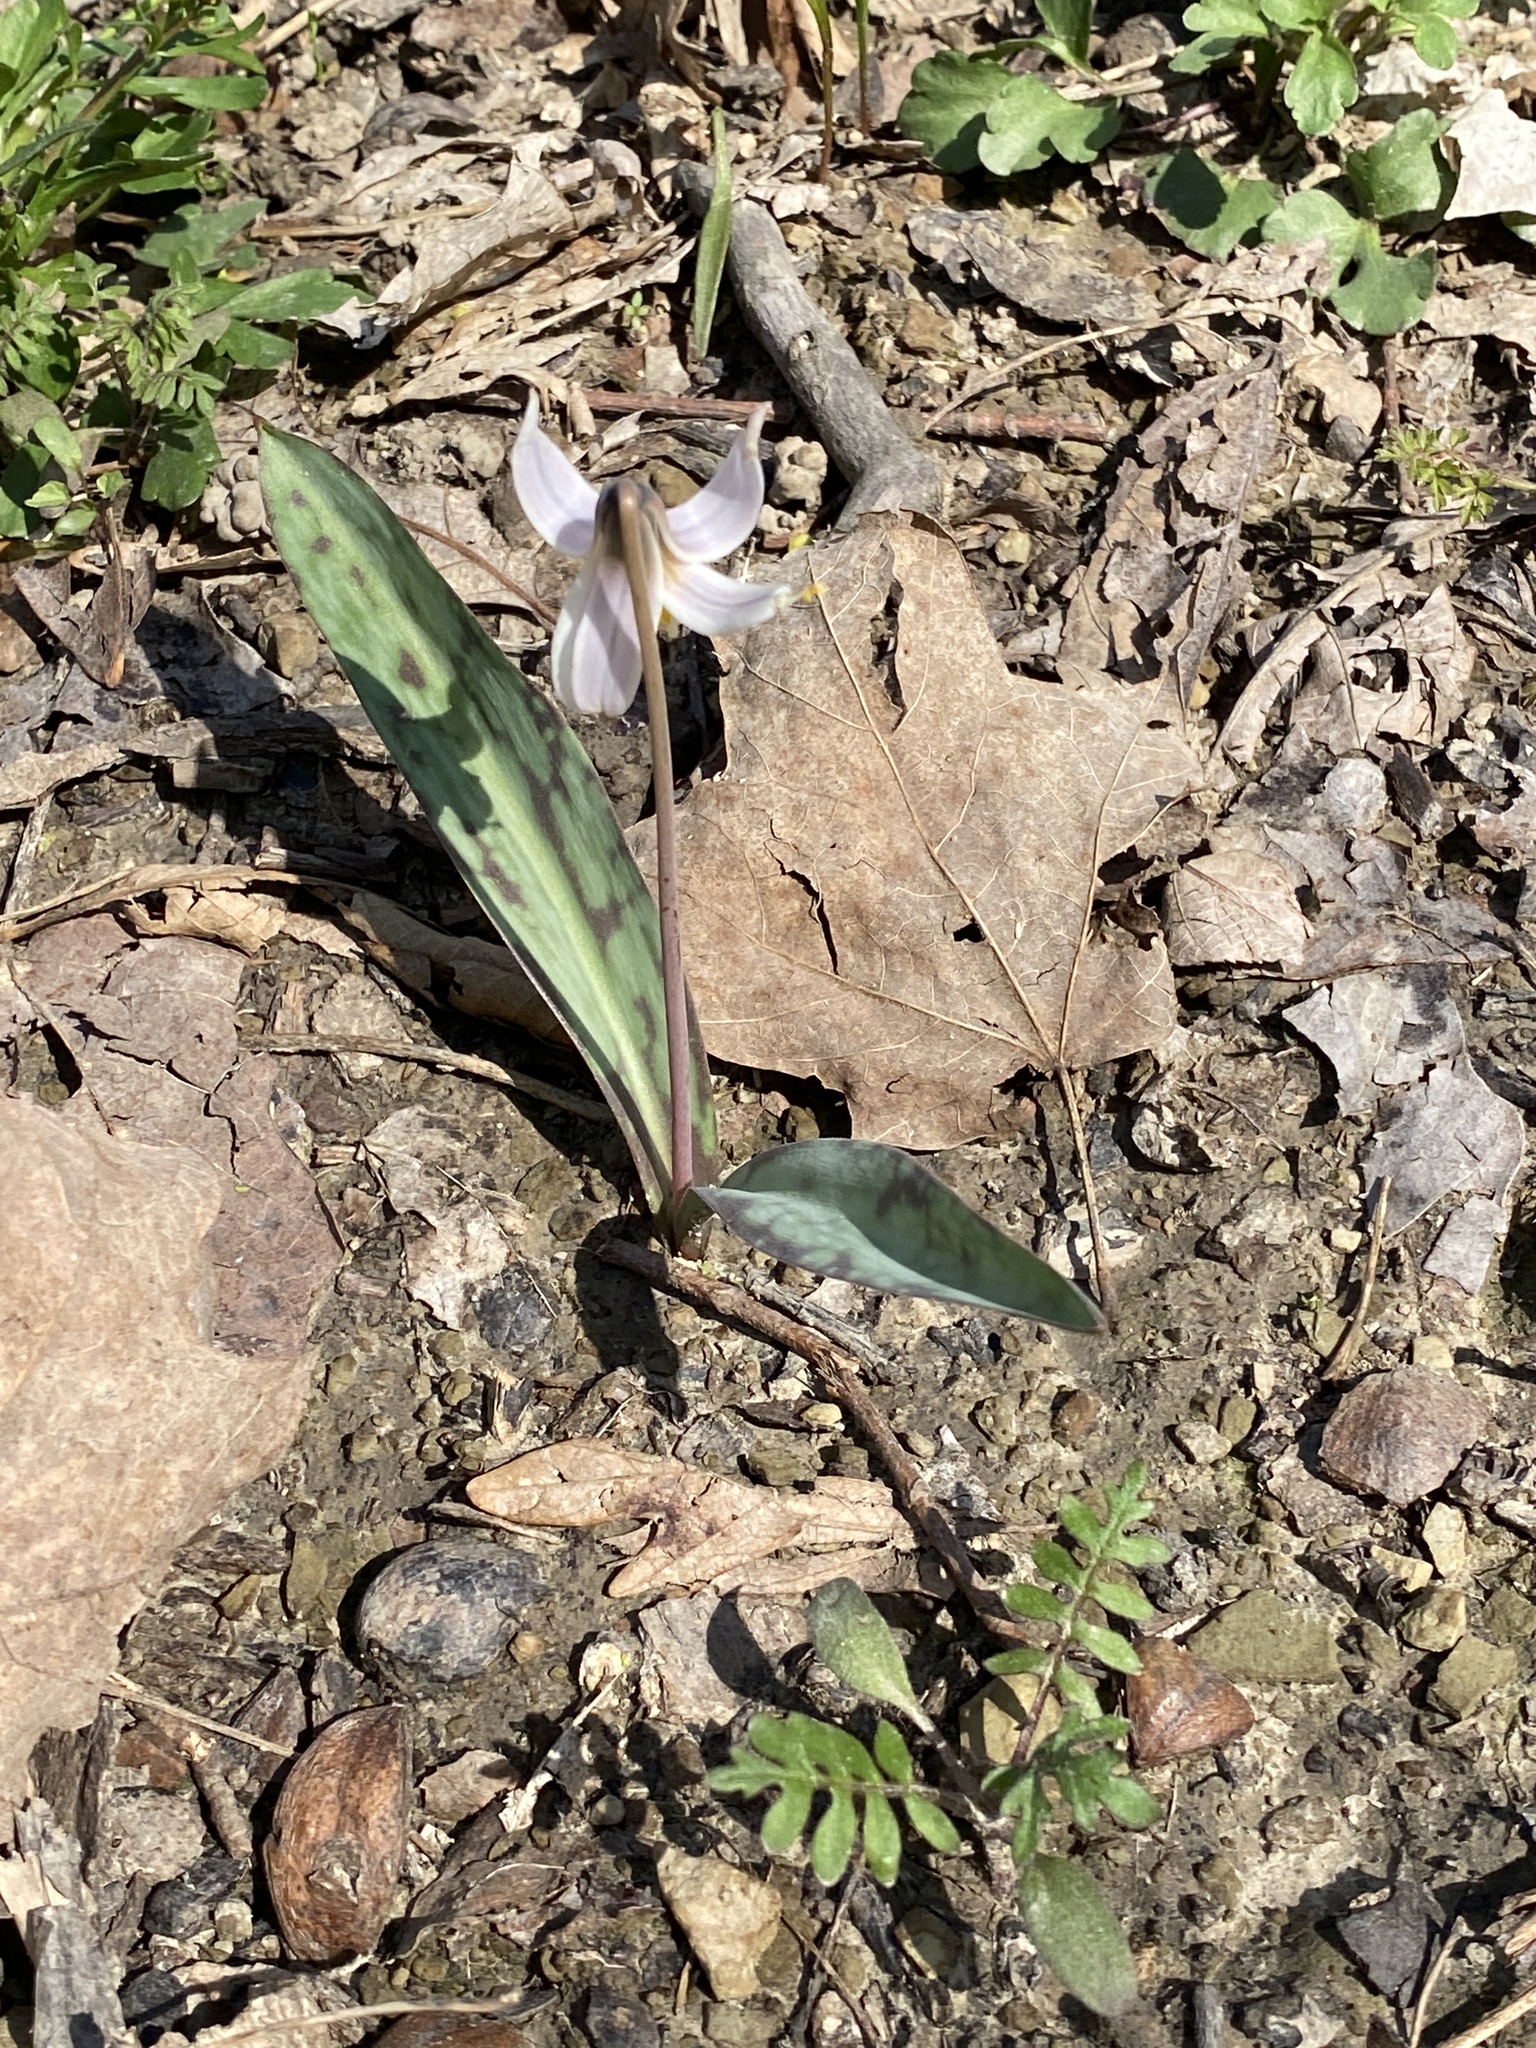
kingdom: Plantae
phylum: Tracheophyta
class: Liliopsida
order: Liliales
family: Liliaceae
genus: Erythronium
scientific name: Erythronium albidum
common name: White trout-lily
